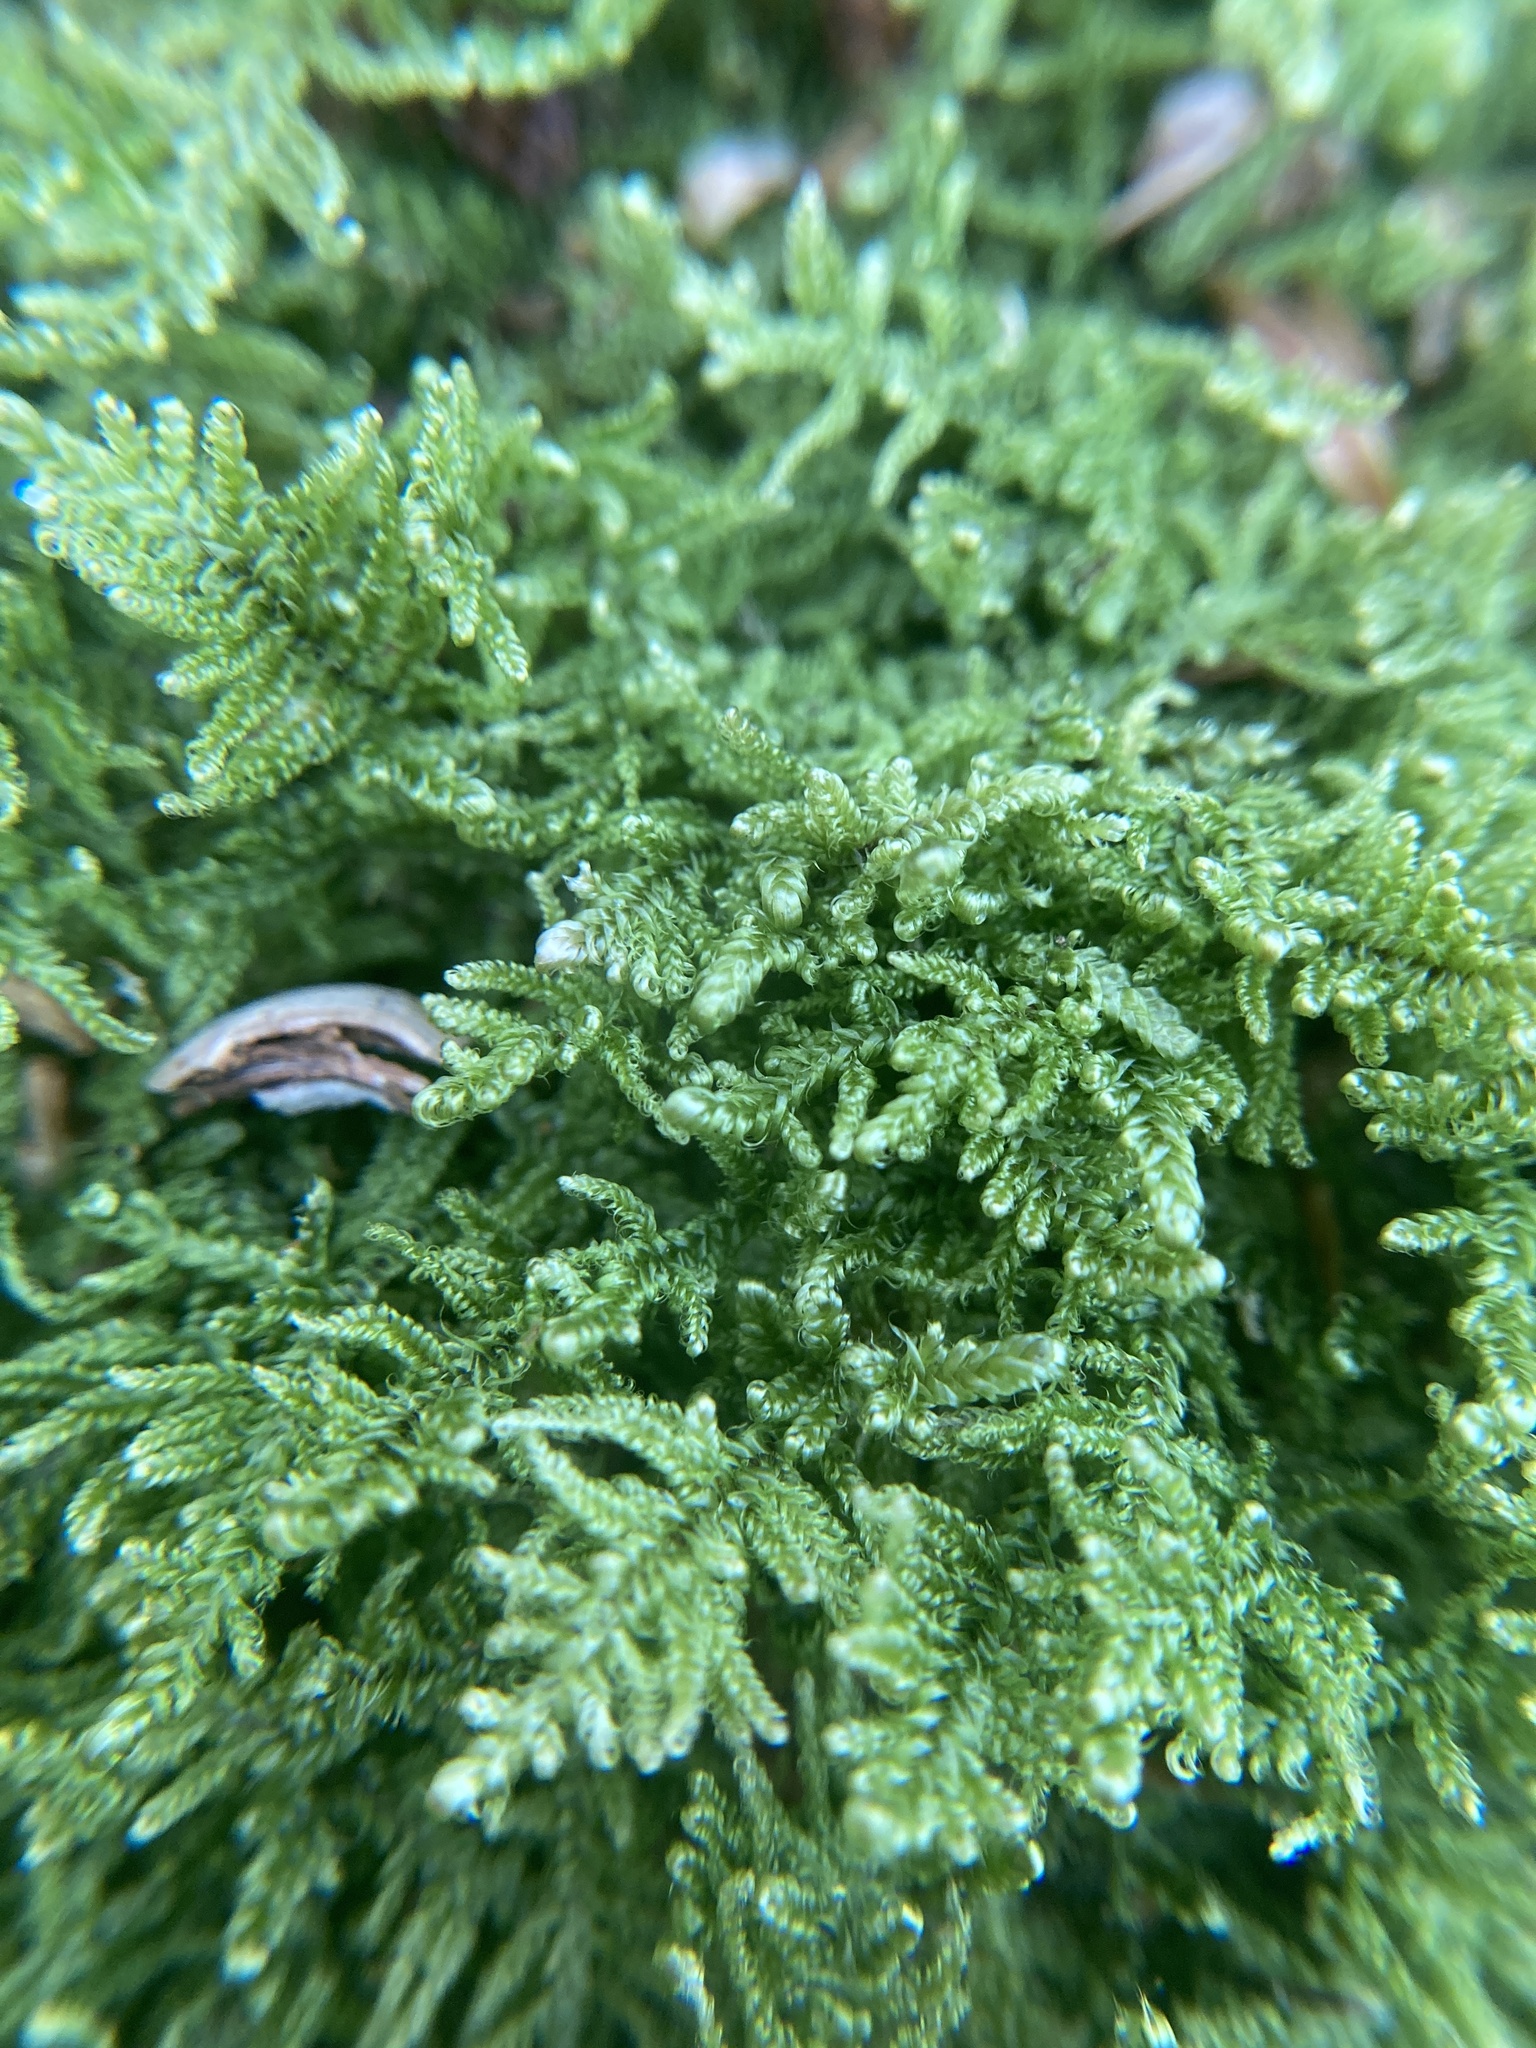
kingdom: Plantae
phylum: Bryophyta
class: Bryopsida
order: Hypnales
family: Callicladiaceae
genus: Callicladium
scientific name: Callicladium imponens
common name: Brocade moss
